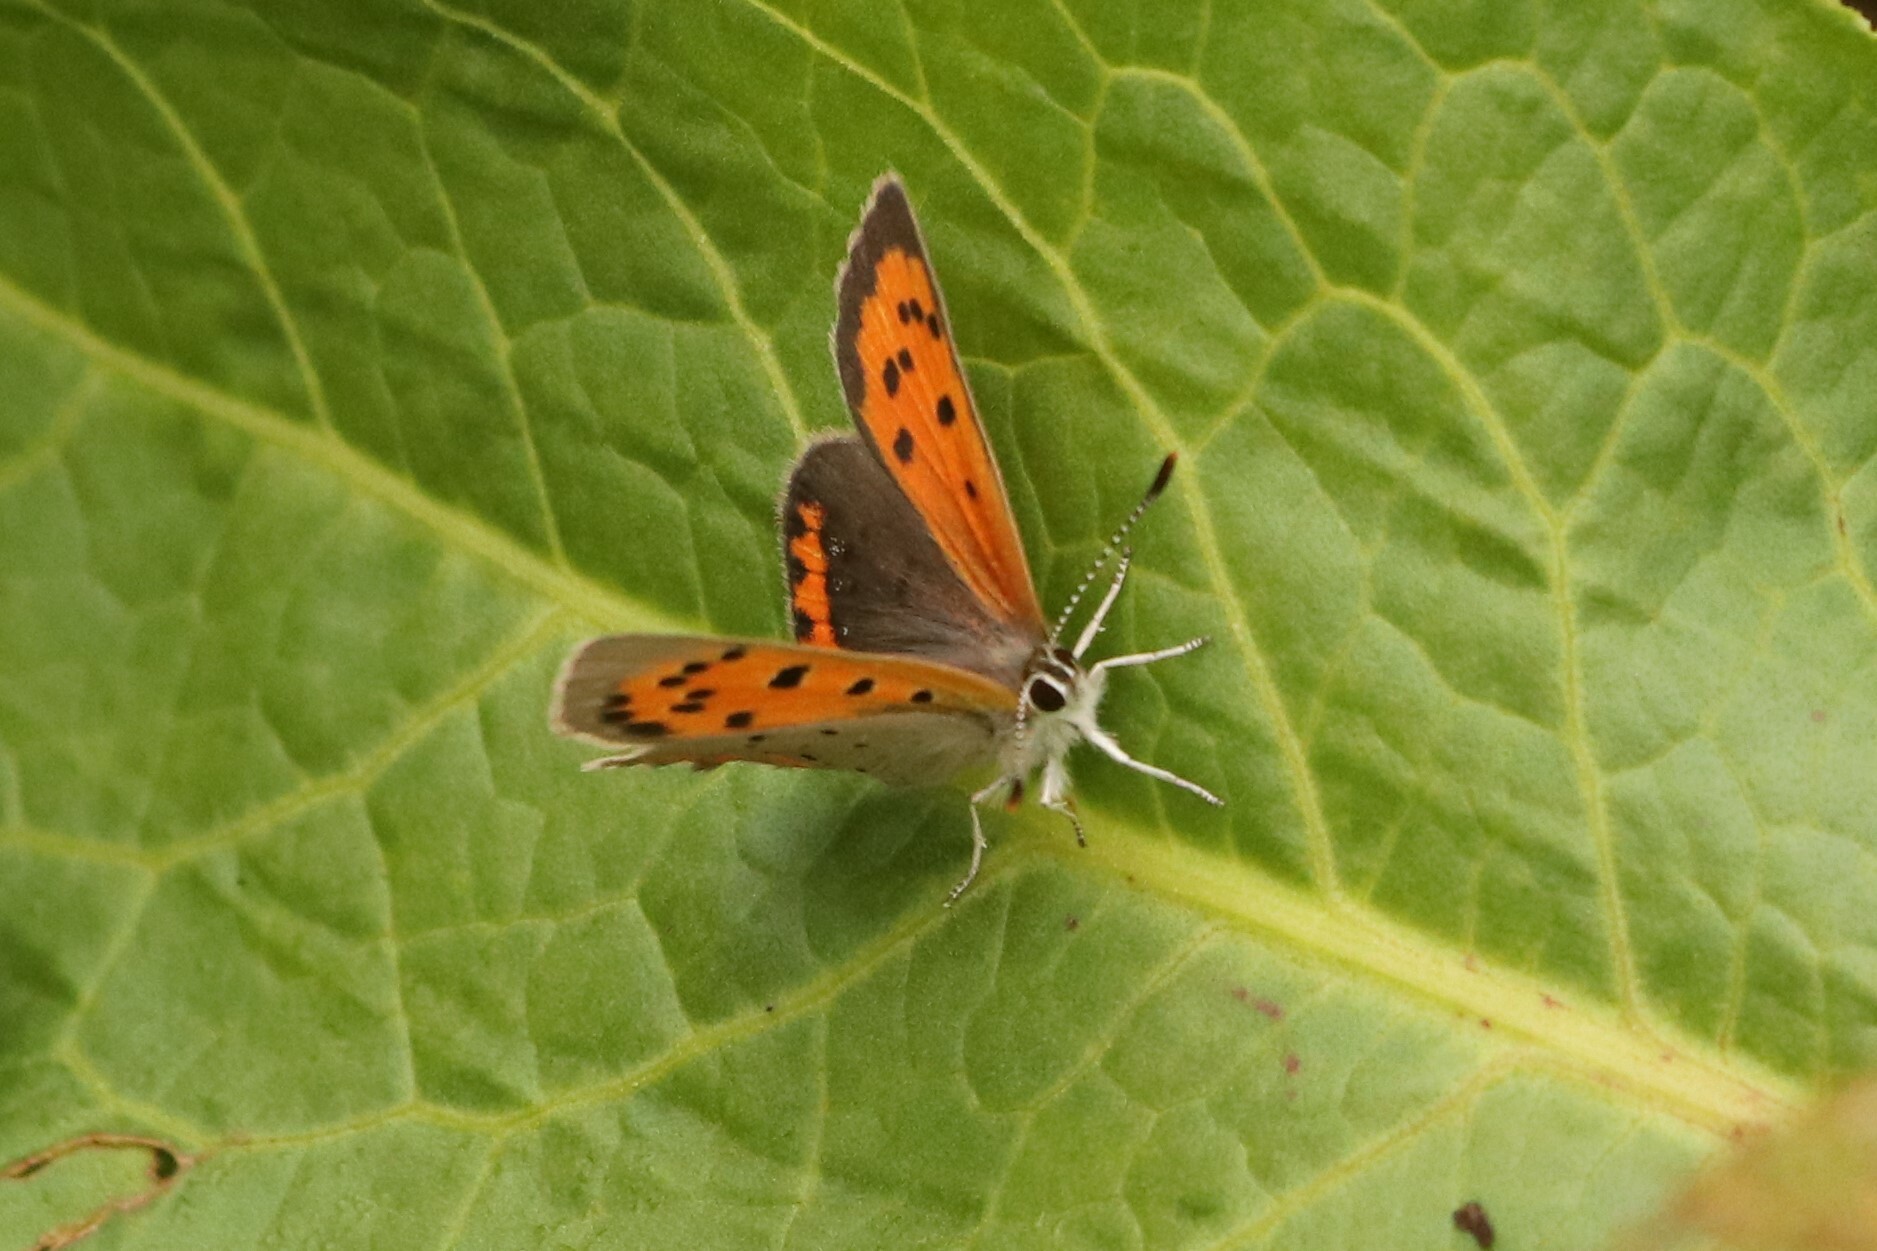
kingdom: Animalia
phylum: Arthropoda
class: Insecta
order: Lepidoptera
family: Lycaenidae
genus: Lycaena
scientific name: Lycaena hypophlaeas
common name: American copper
